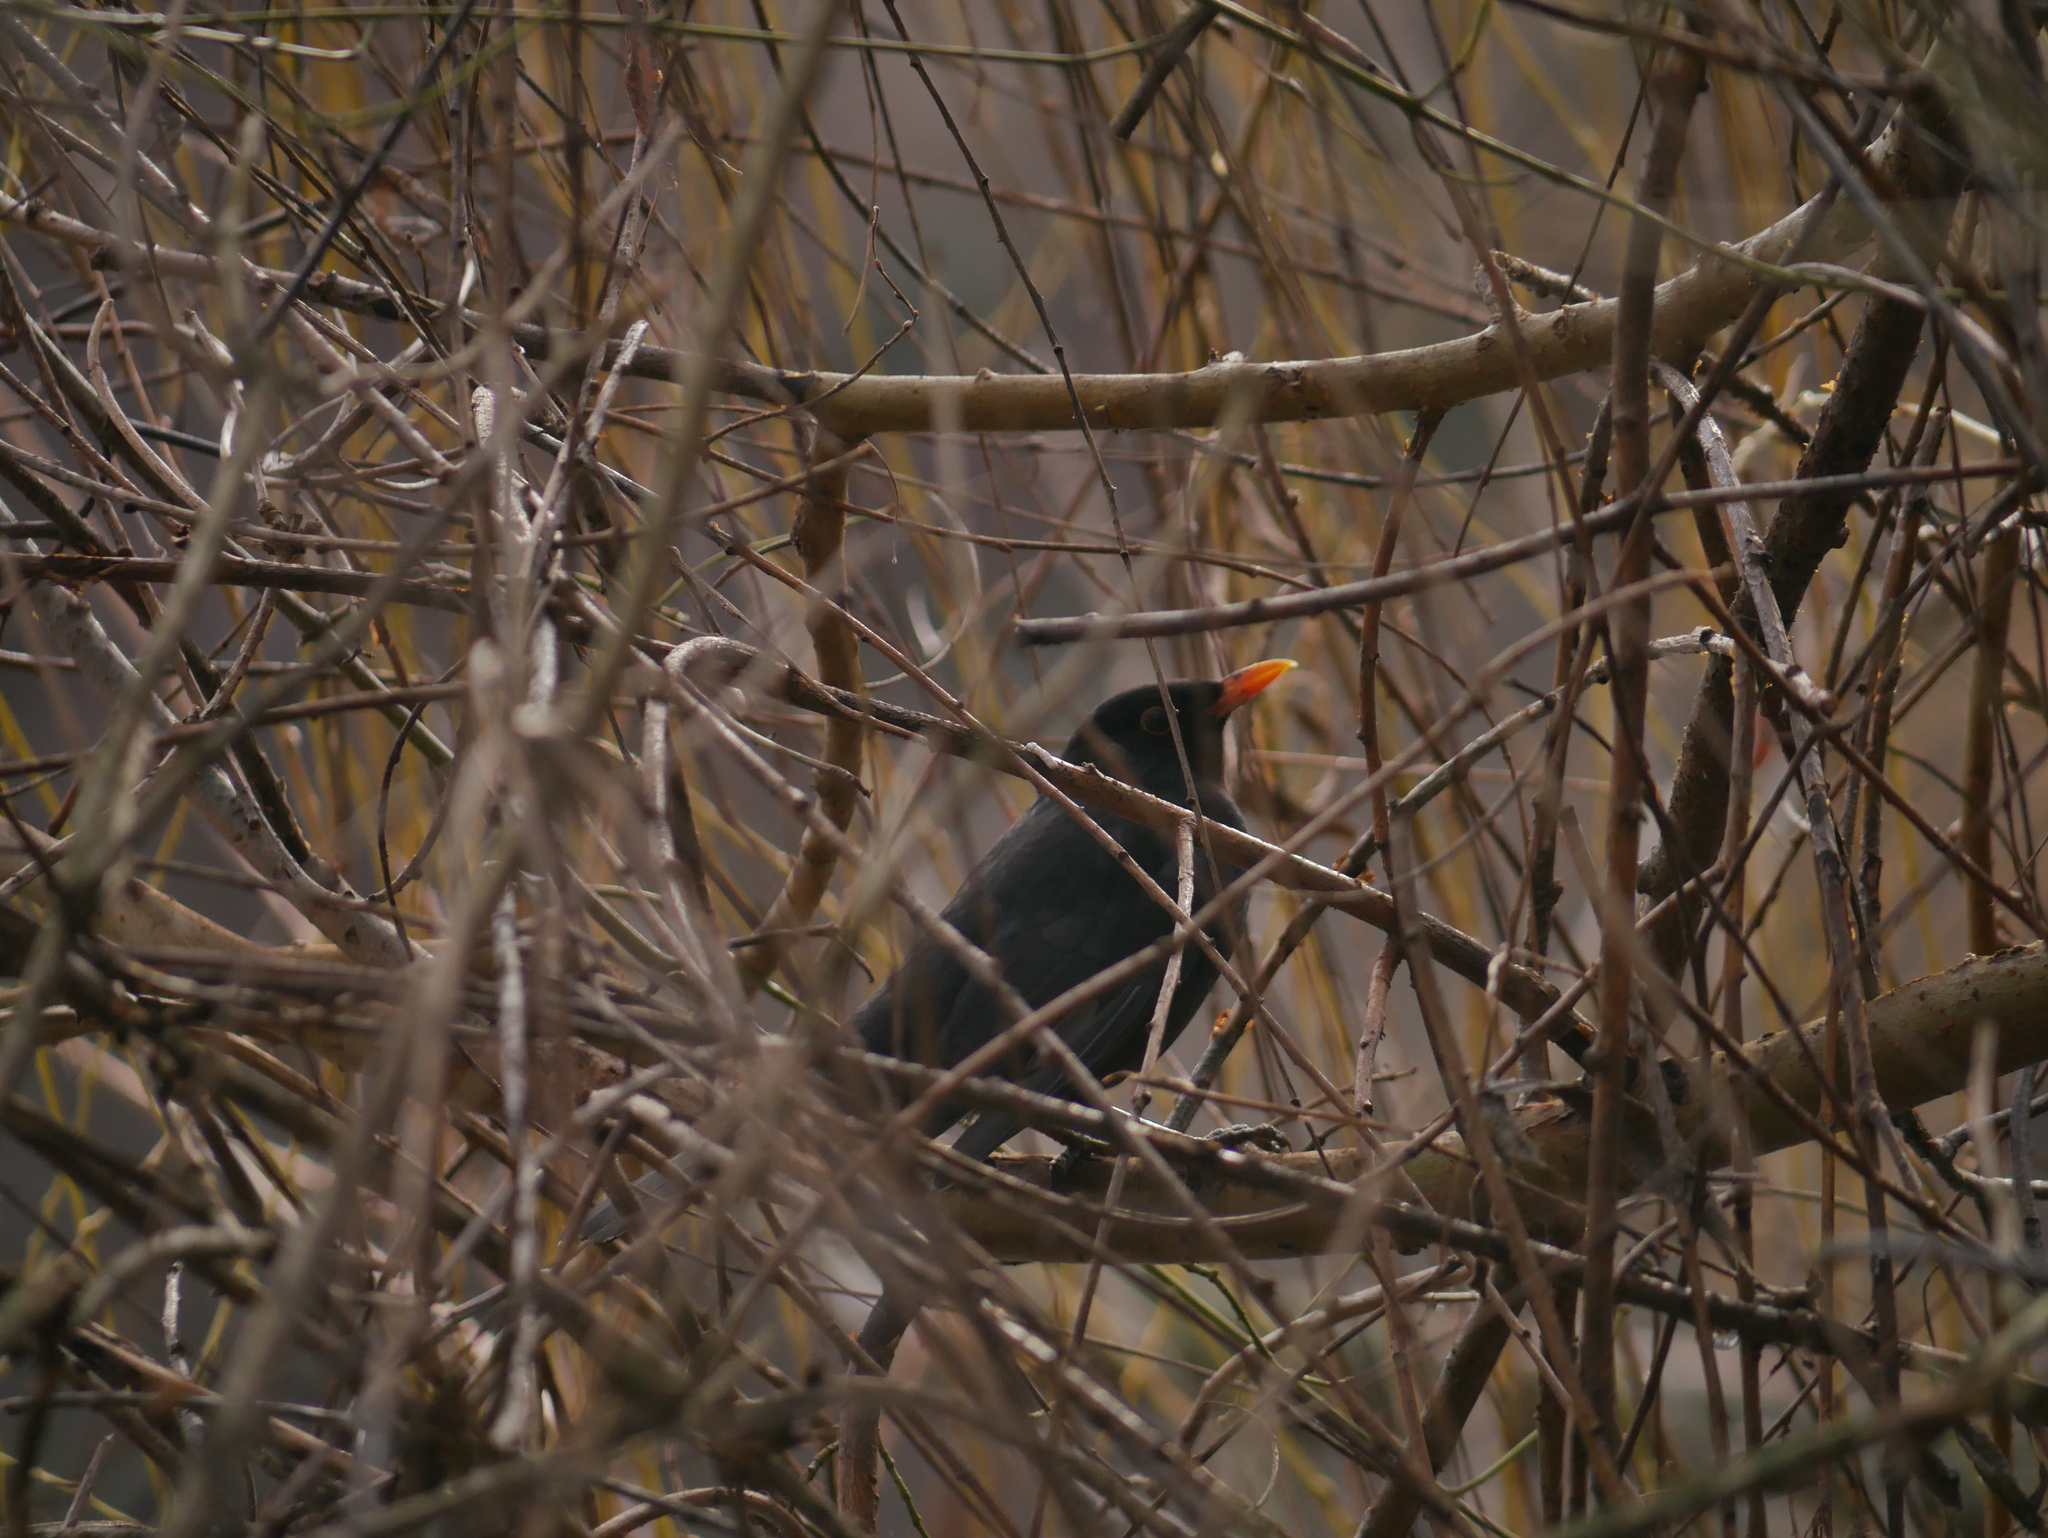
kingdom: Animalia
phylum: Chordata
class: Aves
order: Passeriformes
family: Turdidae
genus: Turdus
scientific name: Turdus merula
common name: Common blackbird
